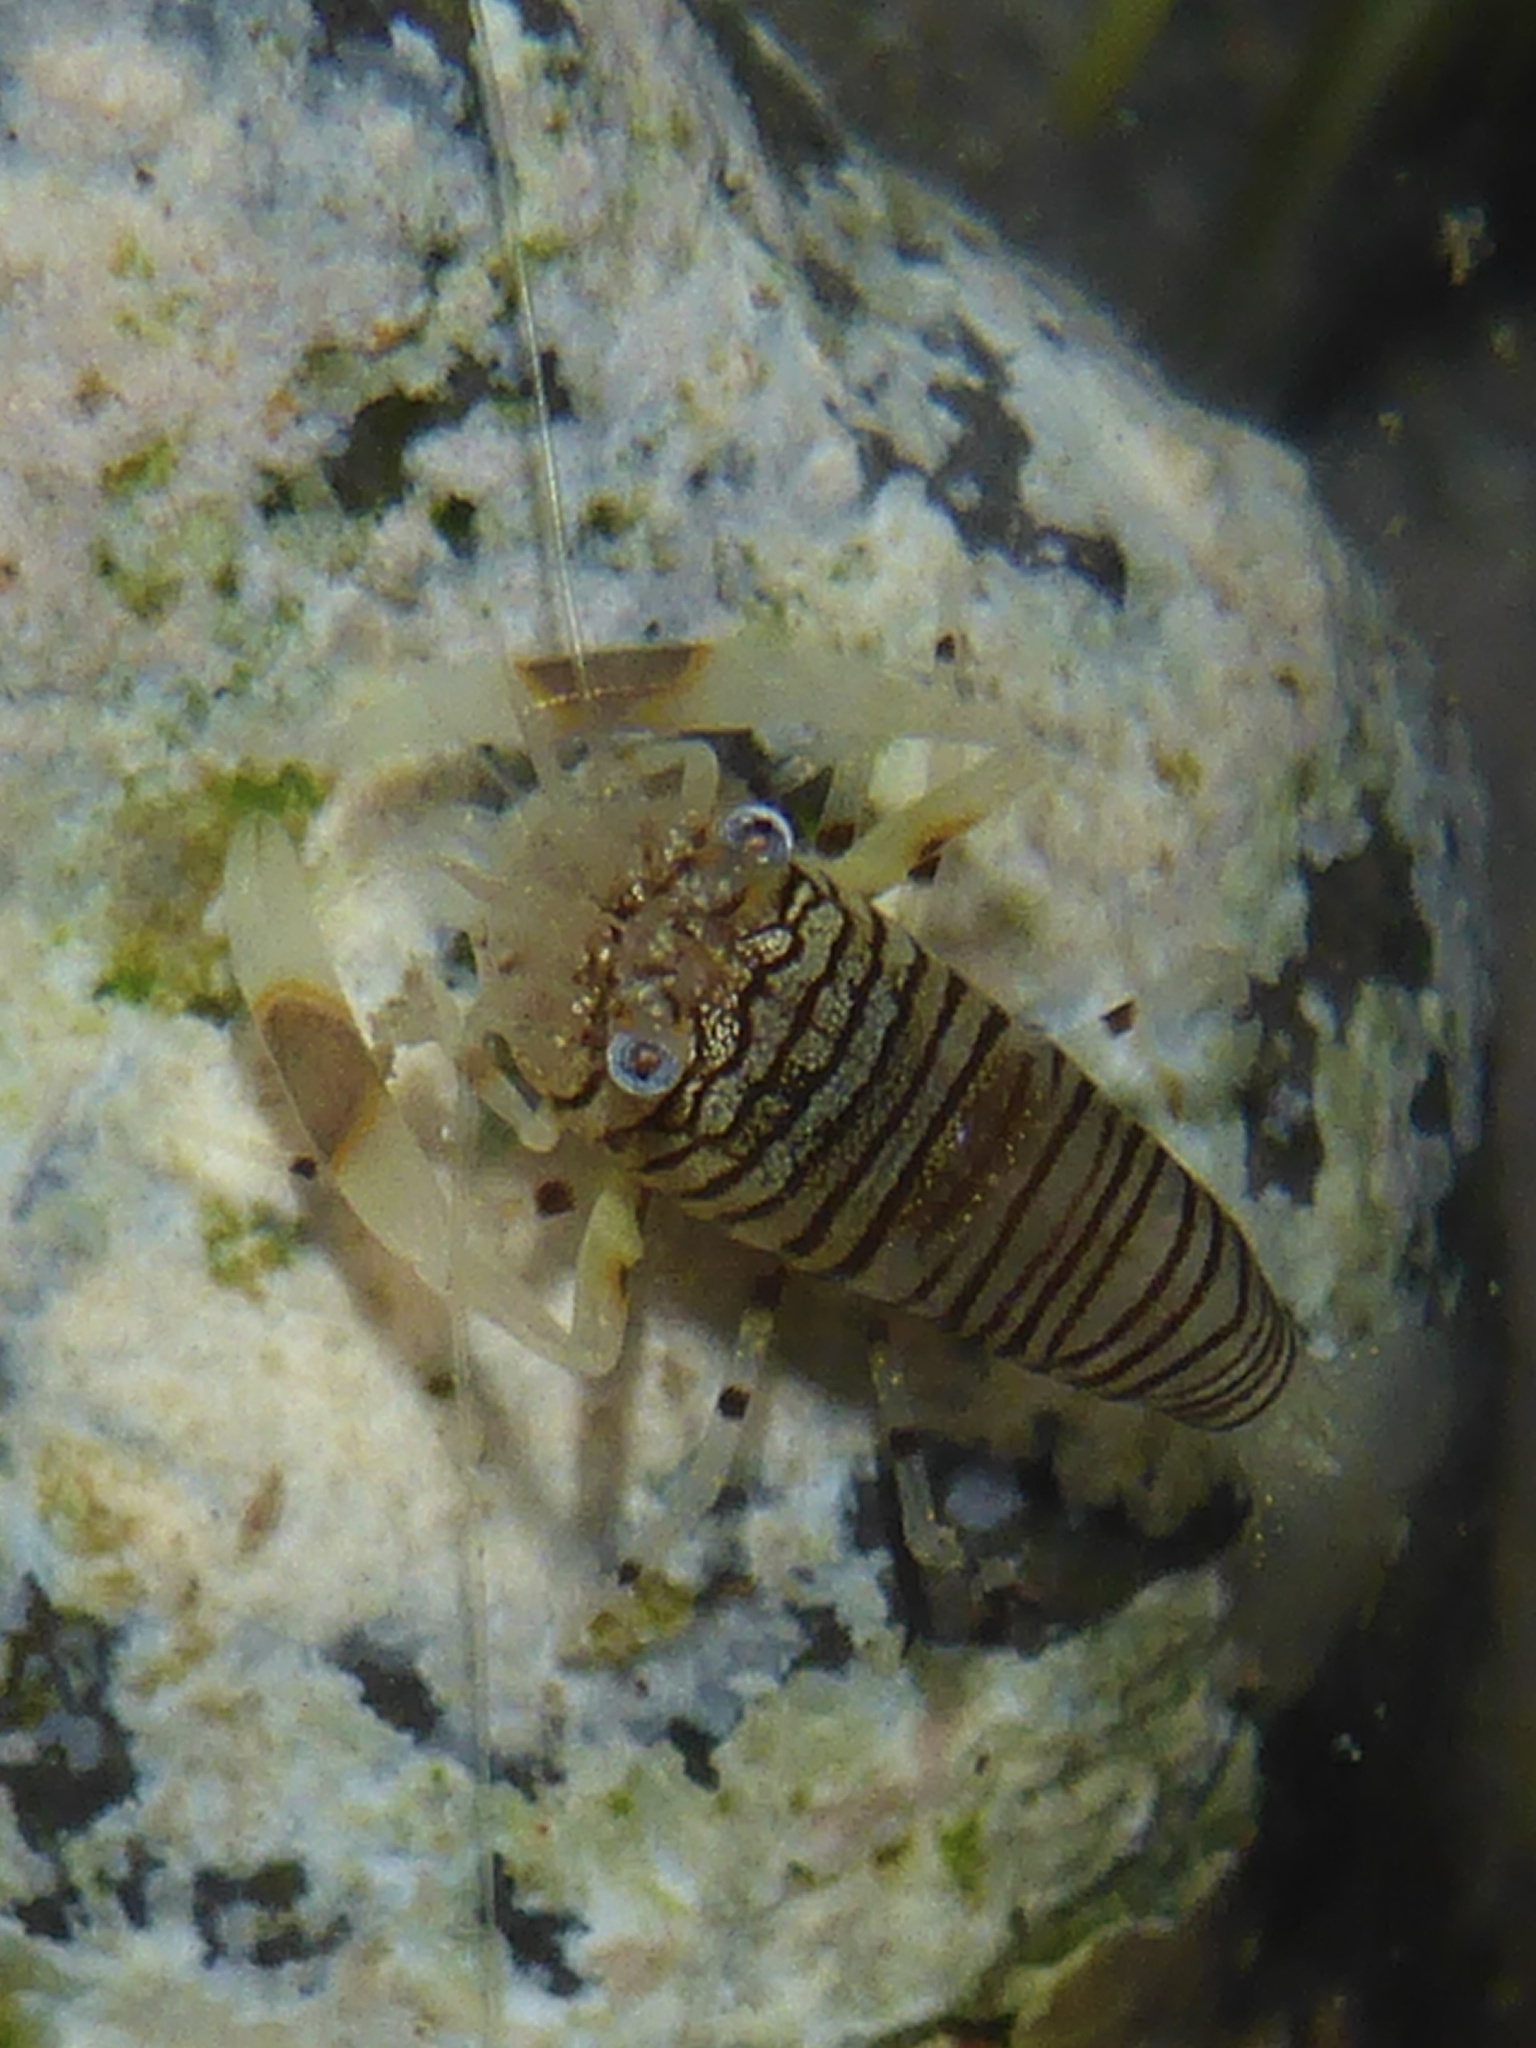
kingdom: Animalia
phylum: Arthropoda
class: Malacostraca
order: Decapoda
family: Palaemonidae
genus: Gnathophyllum
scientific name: Gnathophyllum americanum
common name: Bumblebee shrimp
